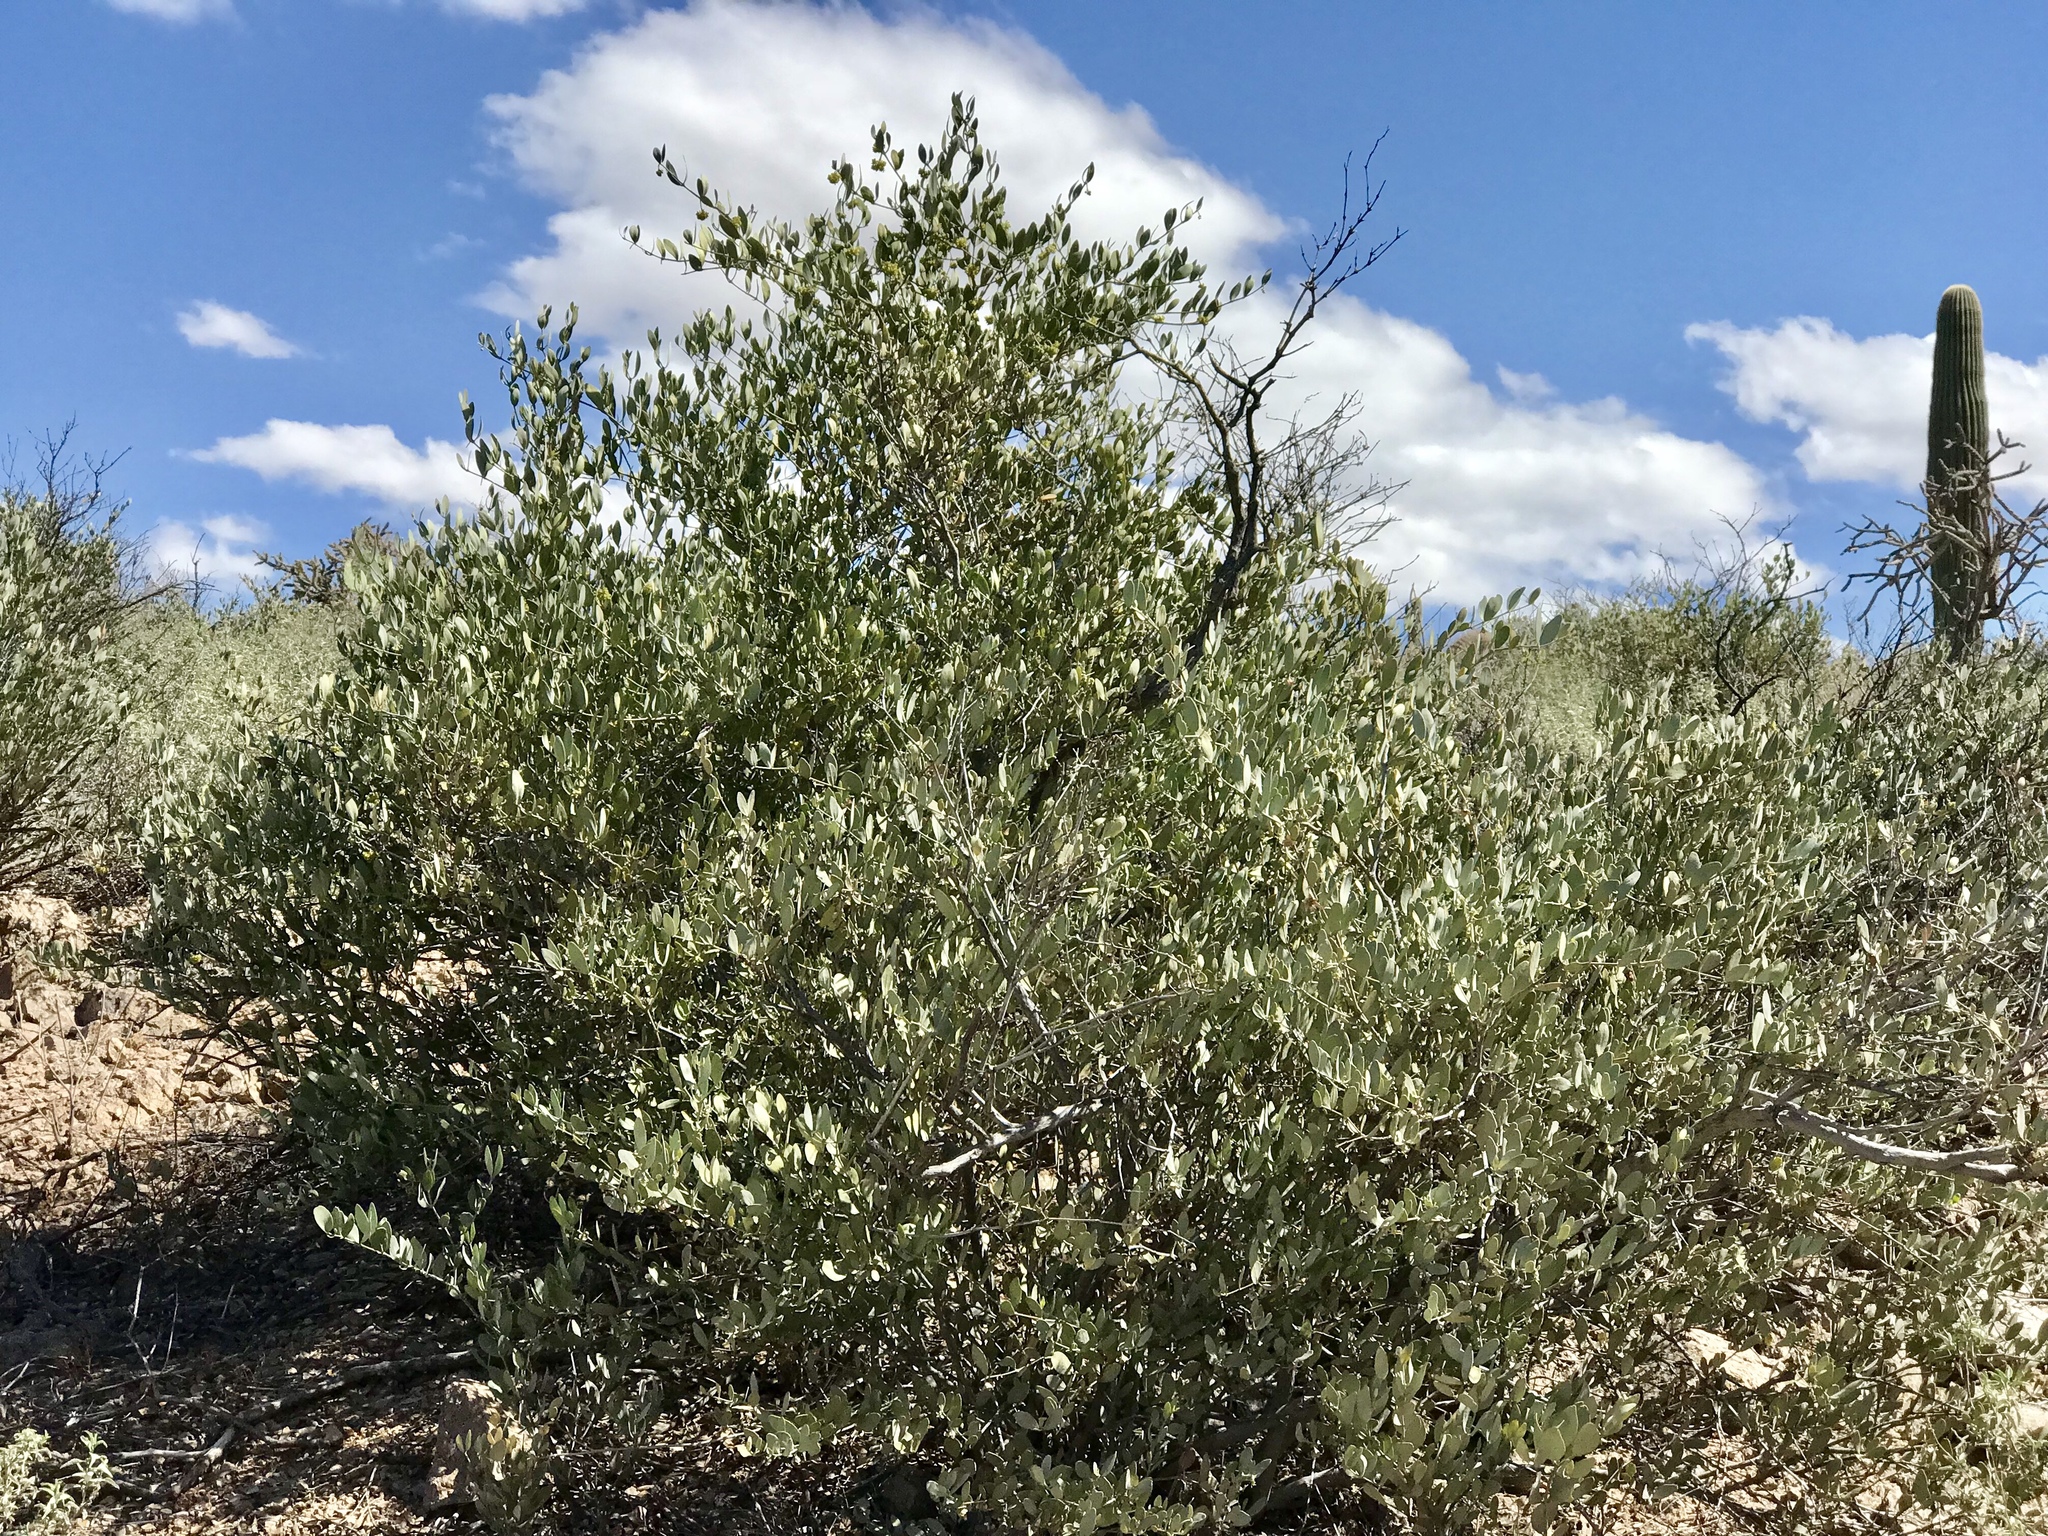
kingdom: Plantae
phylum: Tracheophyta
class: Magnoliopsida
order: Caryophyllales
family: Simmondsiaceae
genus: Simmondsia
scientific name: Simmondsia chinensis
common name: Jojoba
